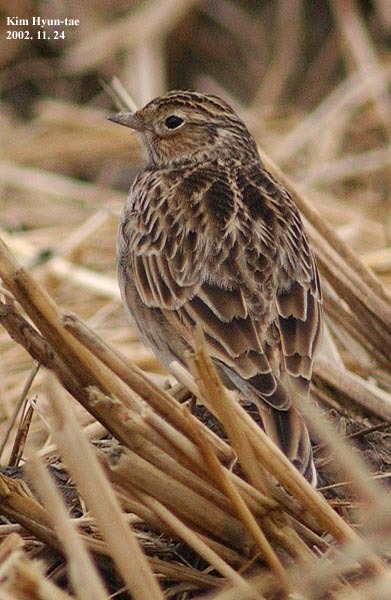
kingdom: Animalia
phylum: Chordata
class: Aves
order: Passeriformes
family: Alaudidae
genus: Alauda
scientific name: Alauda arvensis
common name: Eurasian skylark
